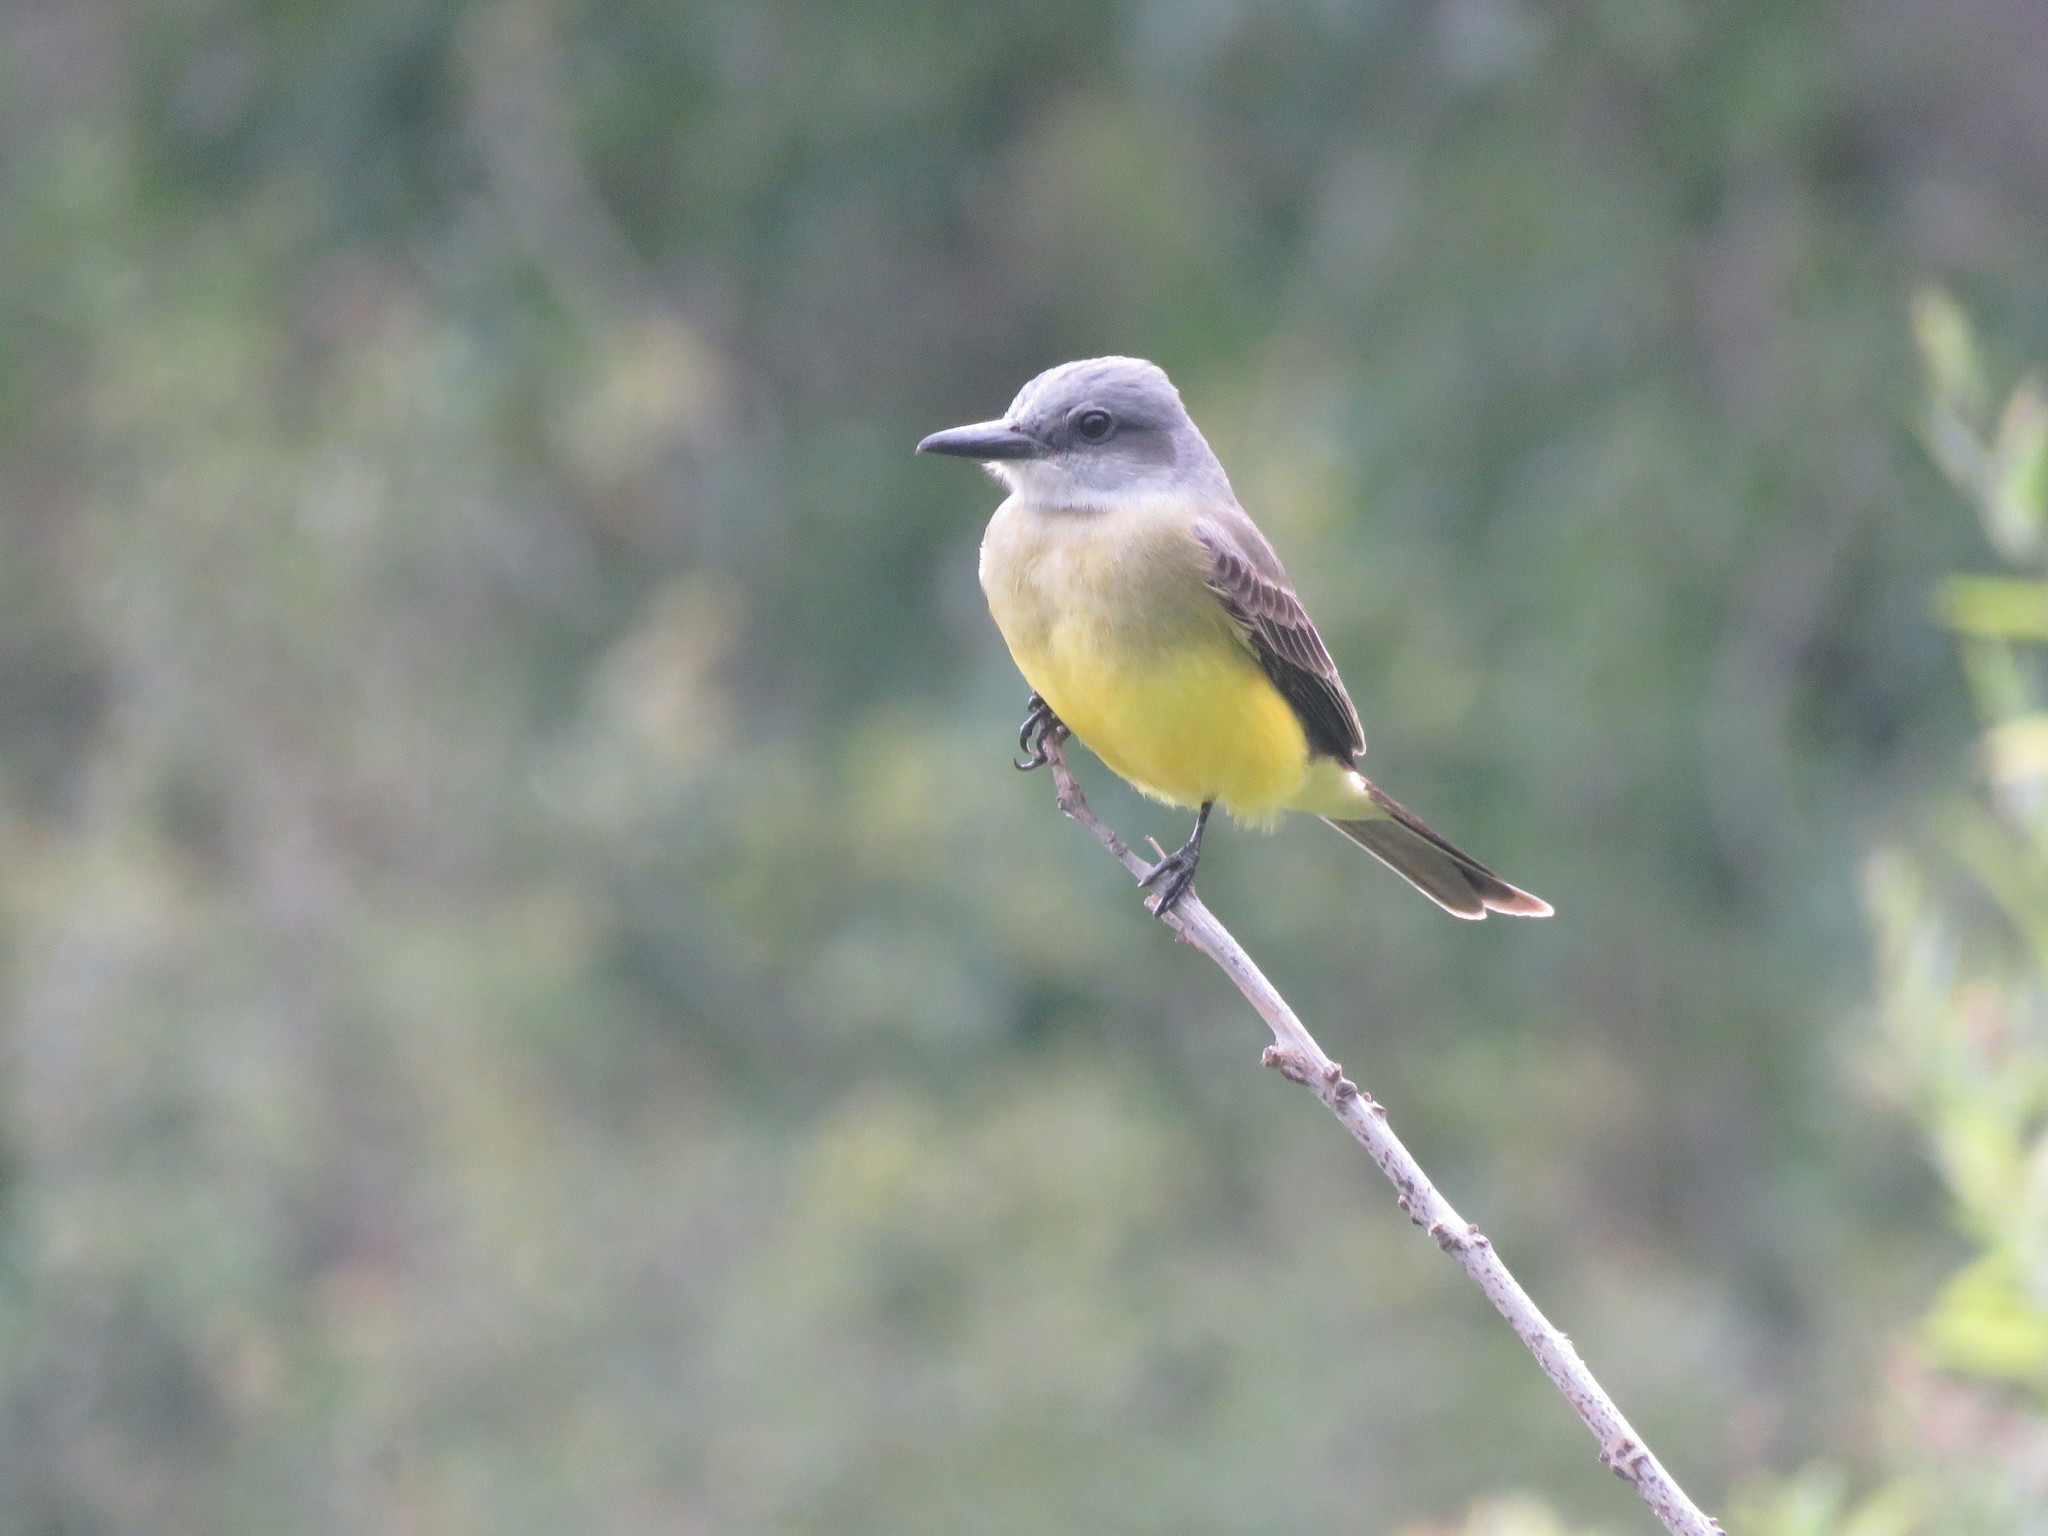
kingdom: Animalia
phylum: Chordata
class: Aves
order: Passeriformes
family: Tyrannidae
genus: Tyrannus
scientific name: Tyrannus melancholicus
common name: Tropical kingbird
